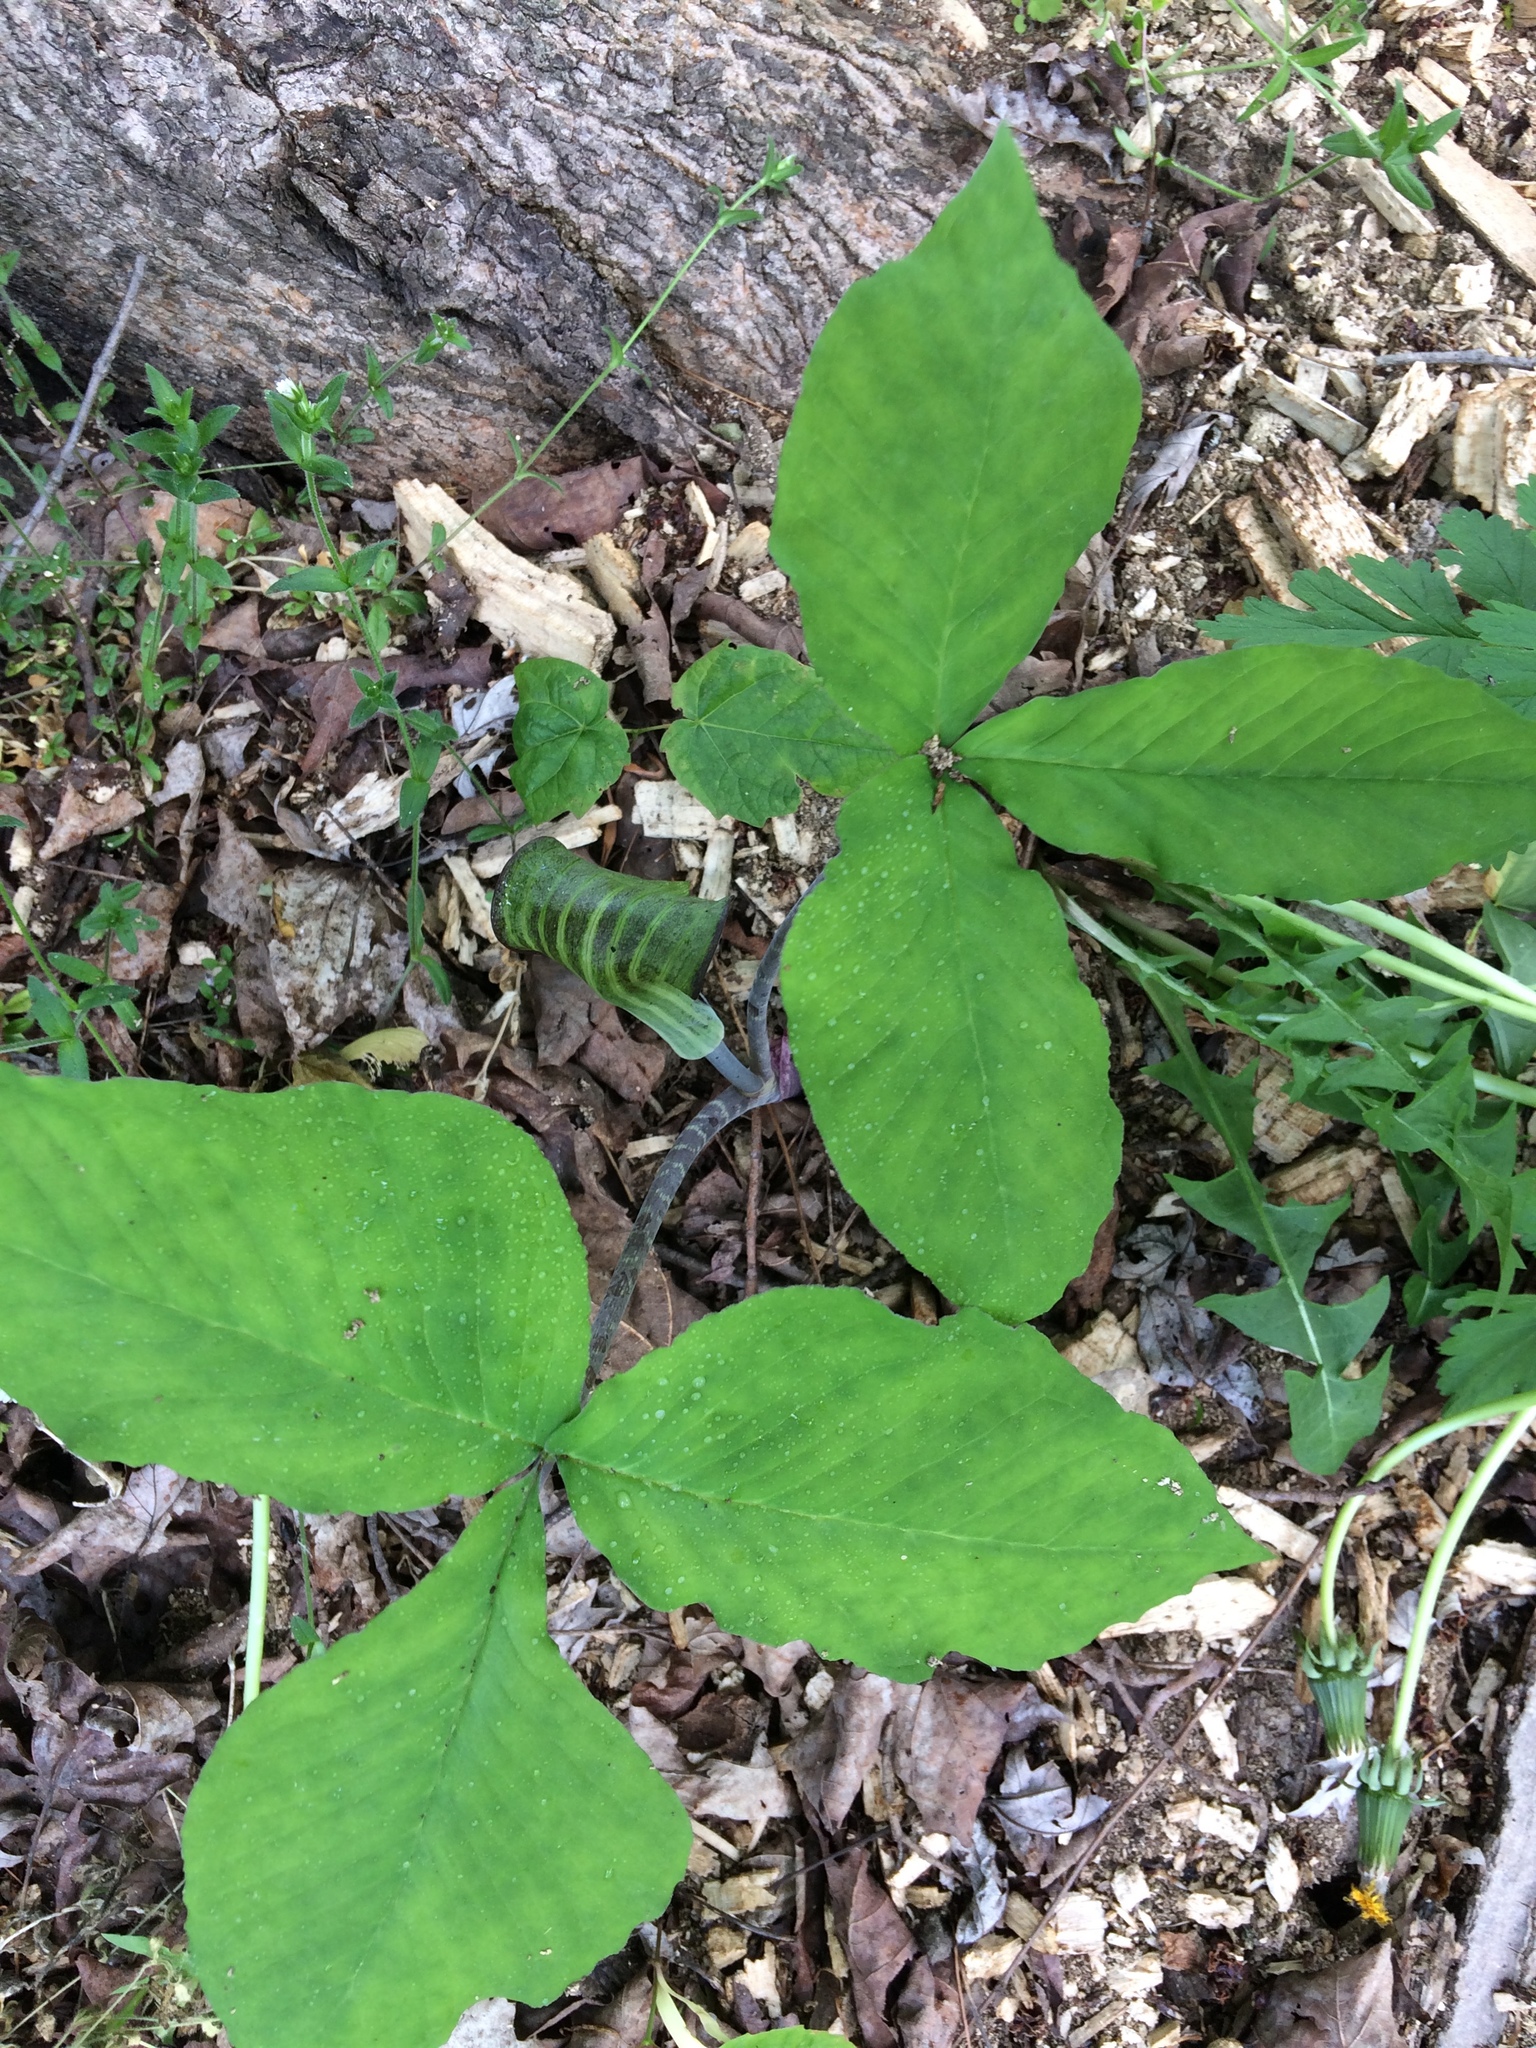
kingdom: Plantae
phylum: Tracheophyta
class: Liliopsida
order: Alismatales
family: Araceae
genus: Arisaema
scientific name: Arisaema triphyllum
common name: Jack-in-the-pulpit
